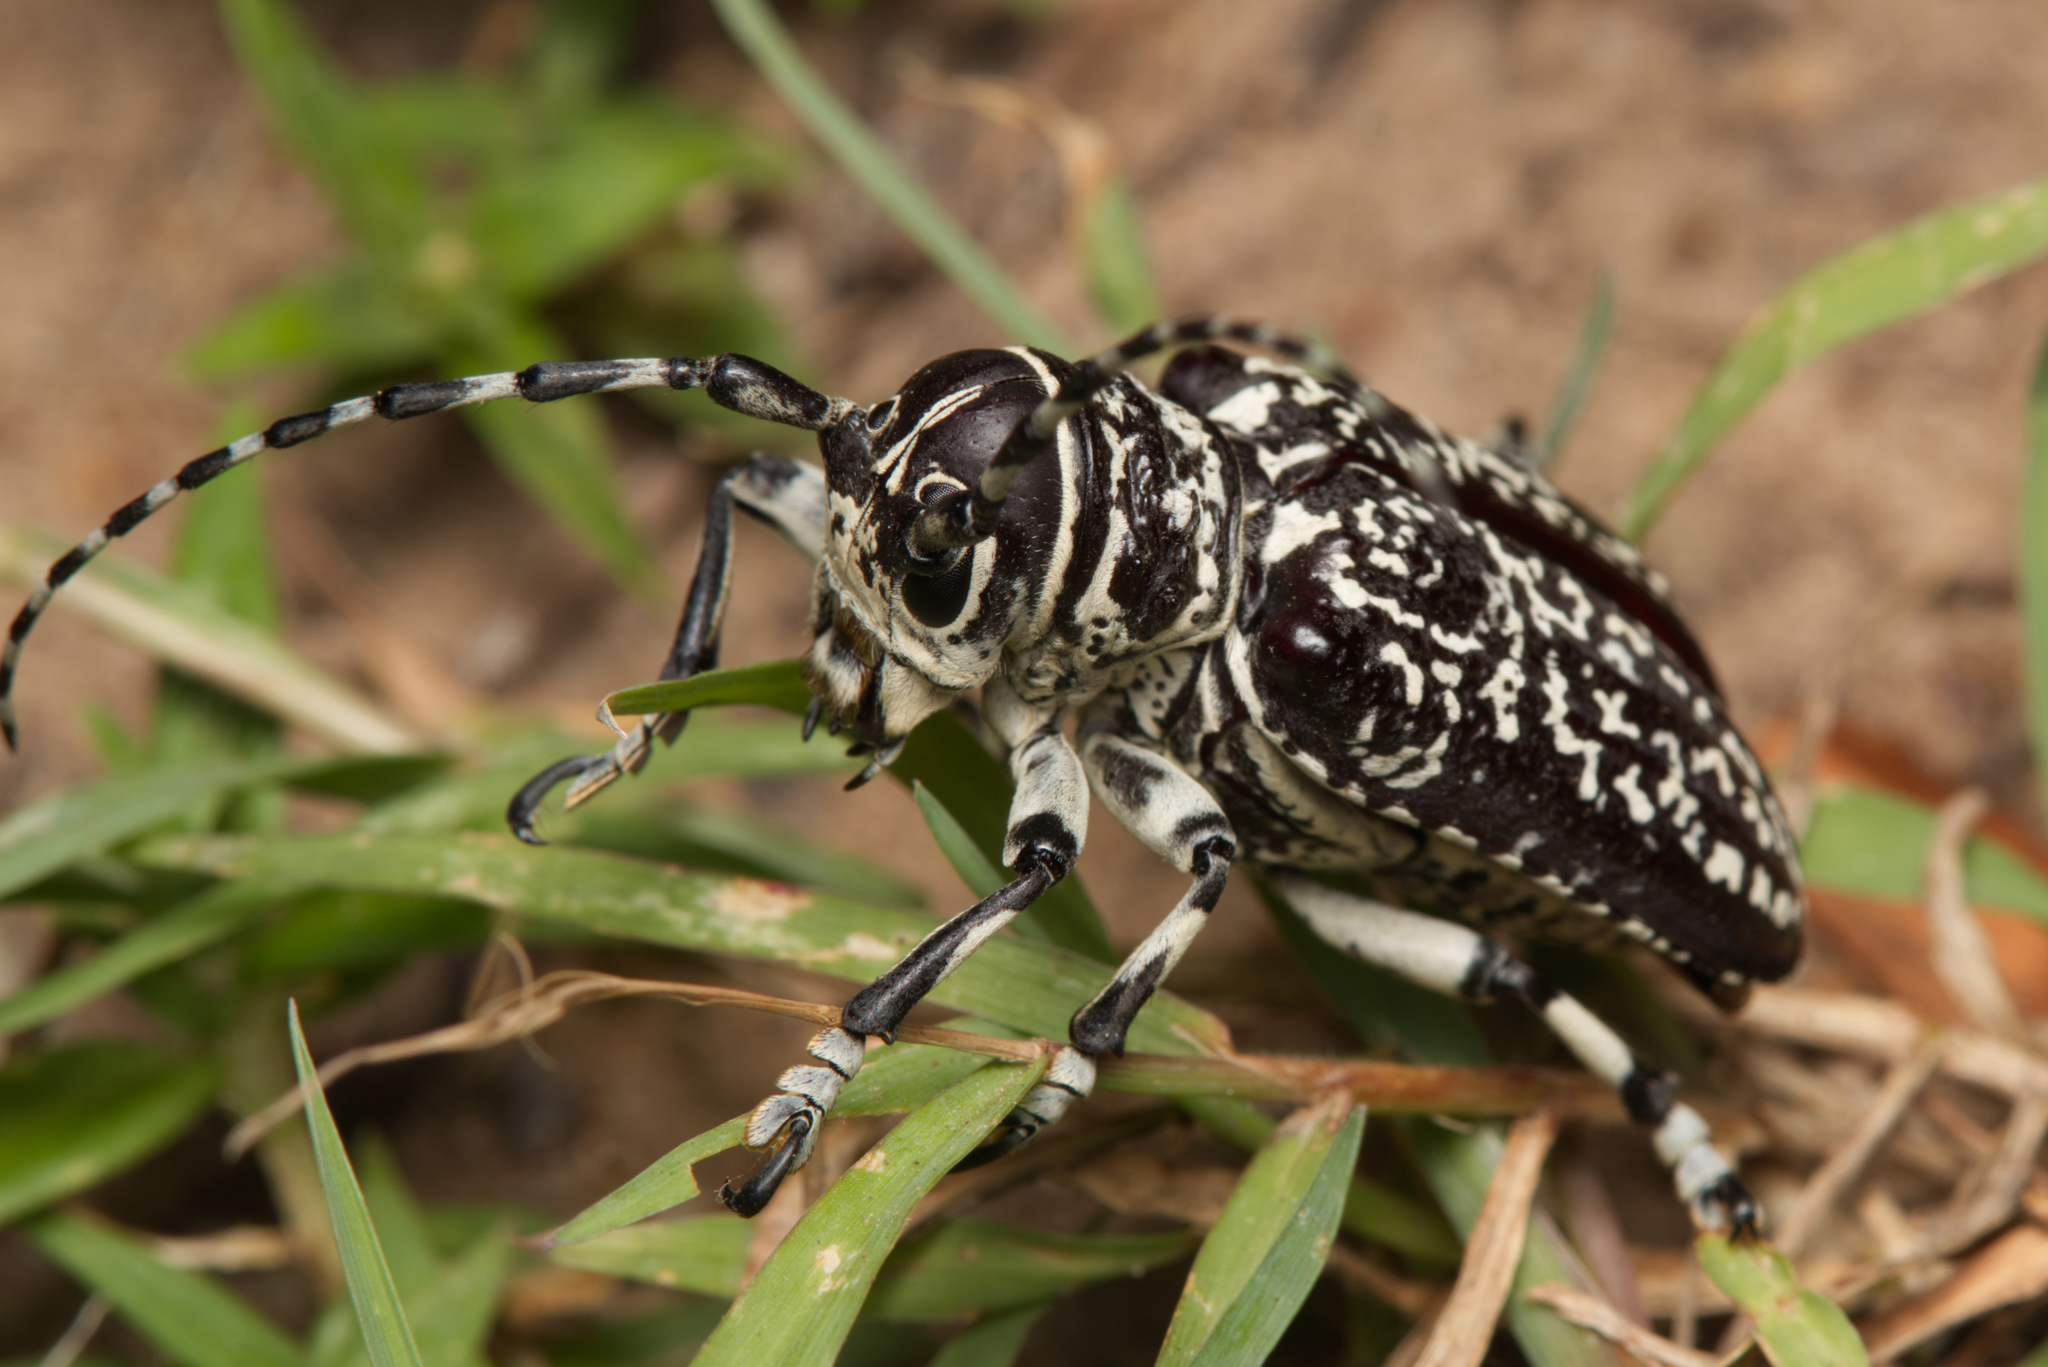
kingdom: Animalia
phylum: Arthropoda
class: Insecta
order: Coleoptera
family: Cerambycidae
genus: Rhytiphora
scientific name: Rhytiphora vermicularia
